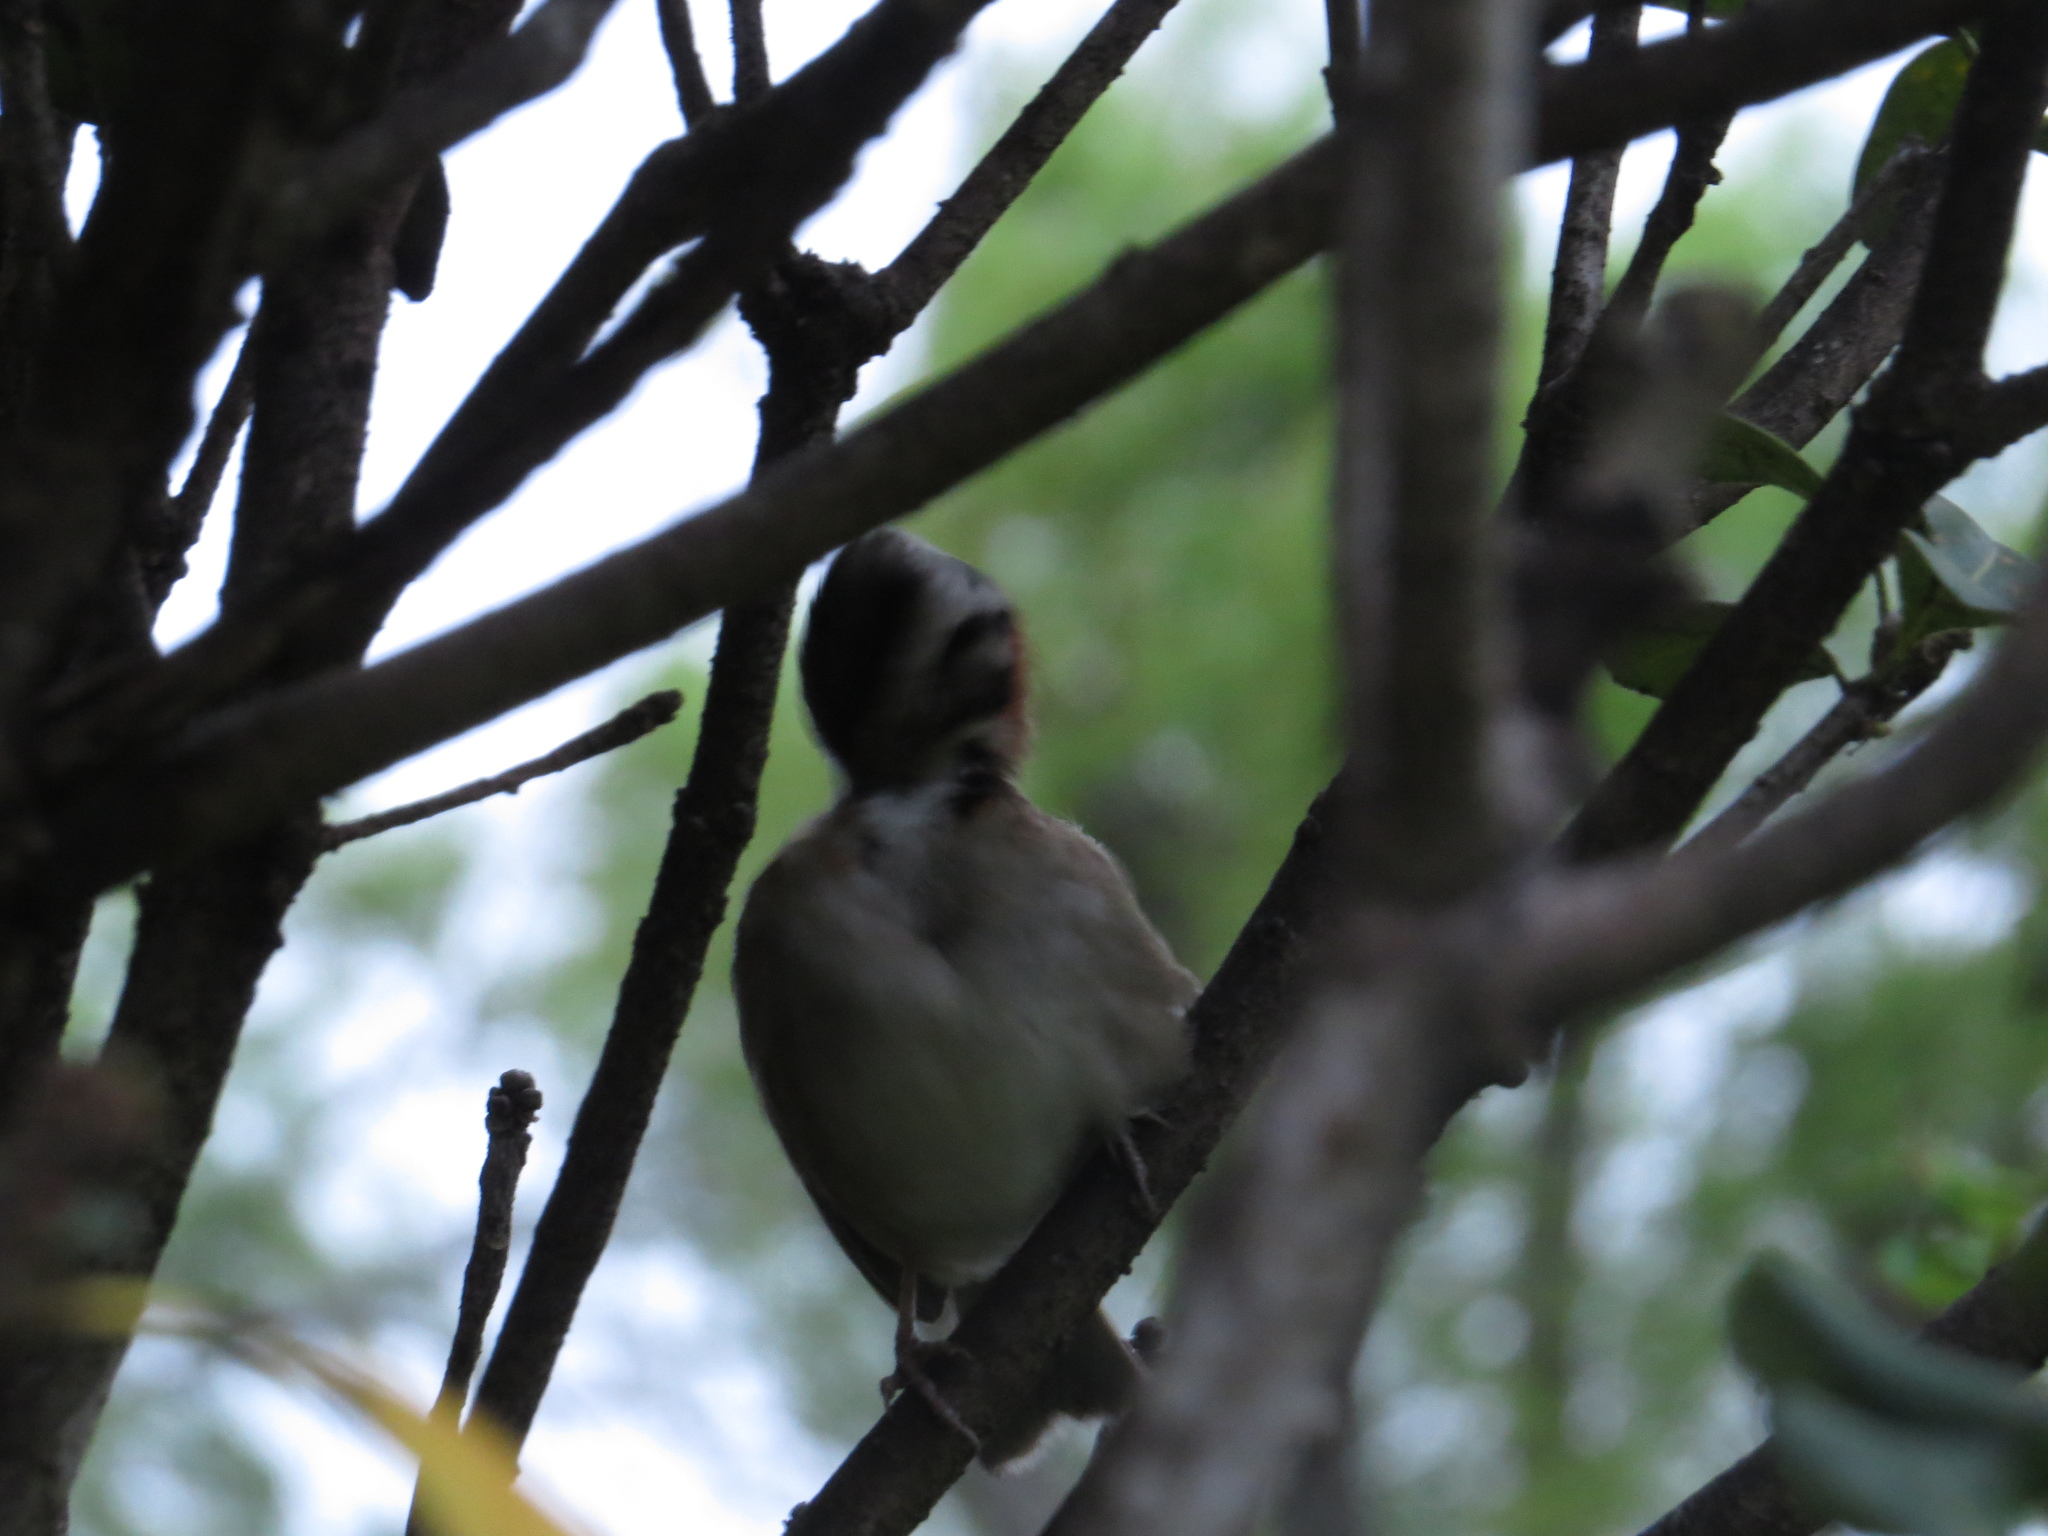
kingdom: Animalia
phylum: Chordata
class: Aves
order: Passeriformes
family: Passerellidae
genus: Zonotrichia
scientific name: Zonotrichia capensis
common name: Rufous-collared sparrow
